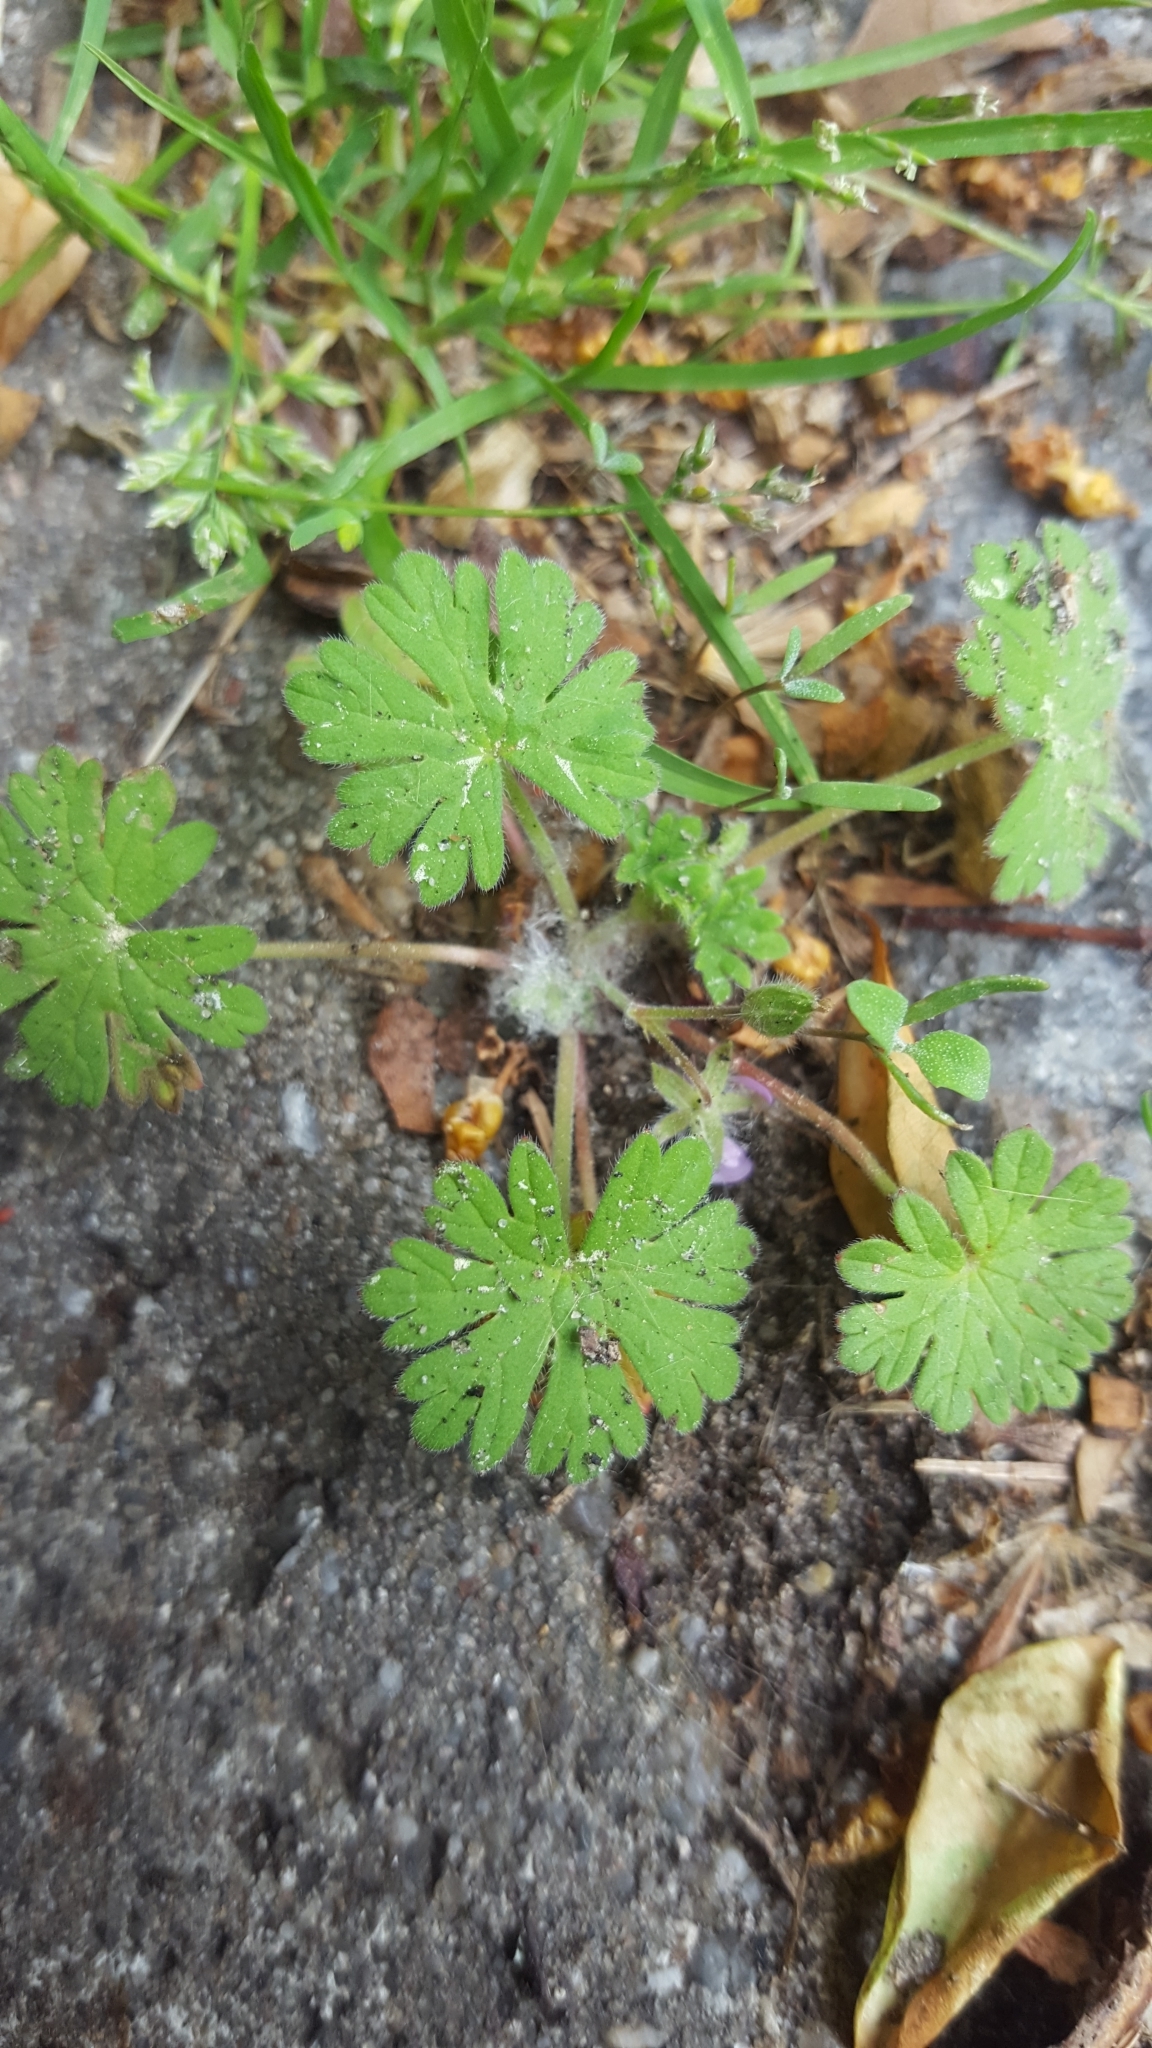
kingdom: Plantae
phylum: Tracheophyta
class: Magnoliopsida
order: Geraniales
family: Geraniaceae
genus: Geranium
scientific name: Geranium molle
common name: Dove's-foot crane's-bill
